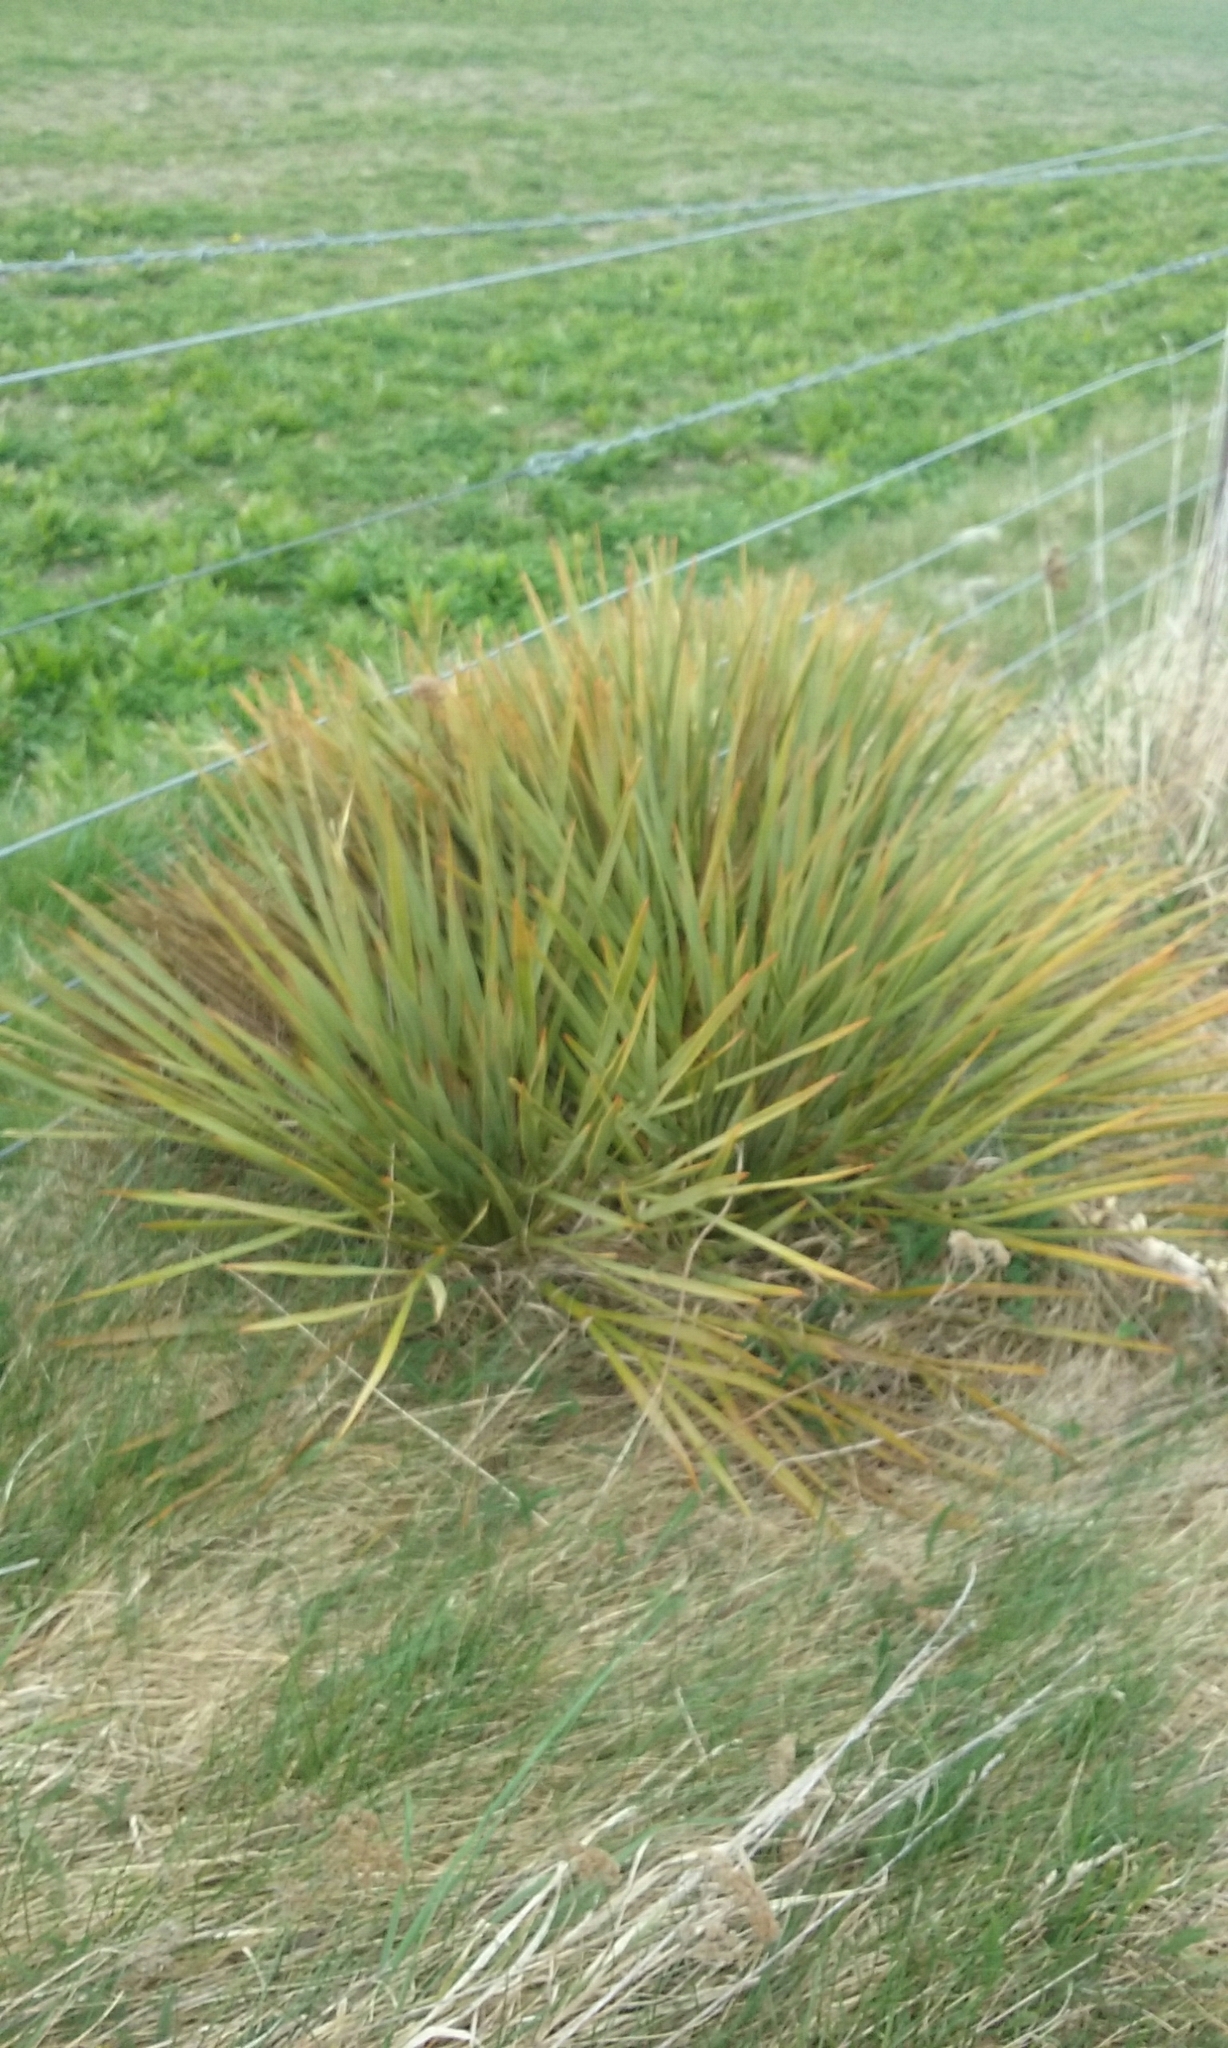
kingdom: Plantae
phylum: Tracheophyta
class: Magnoliopsida
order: Apiales
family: Apiaceae
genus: Aciphylla
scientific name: Aciphylla aurea
